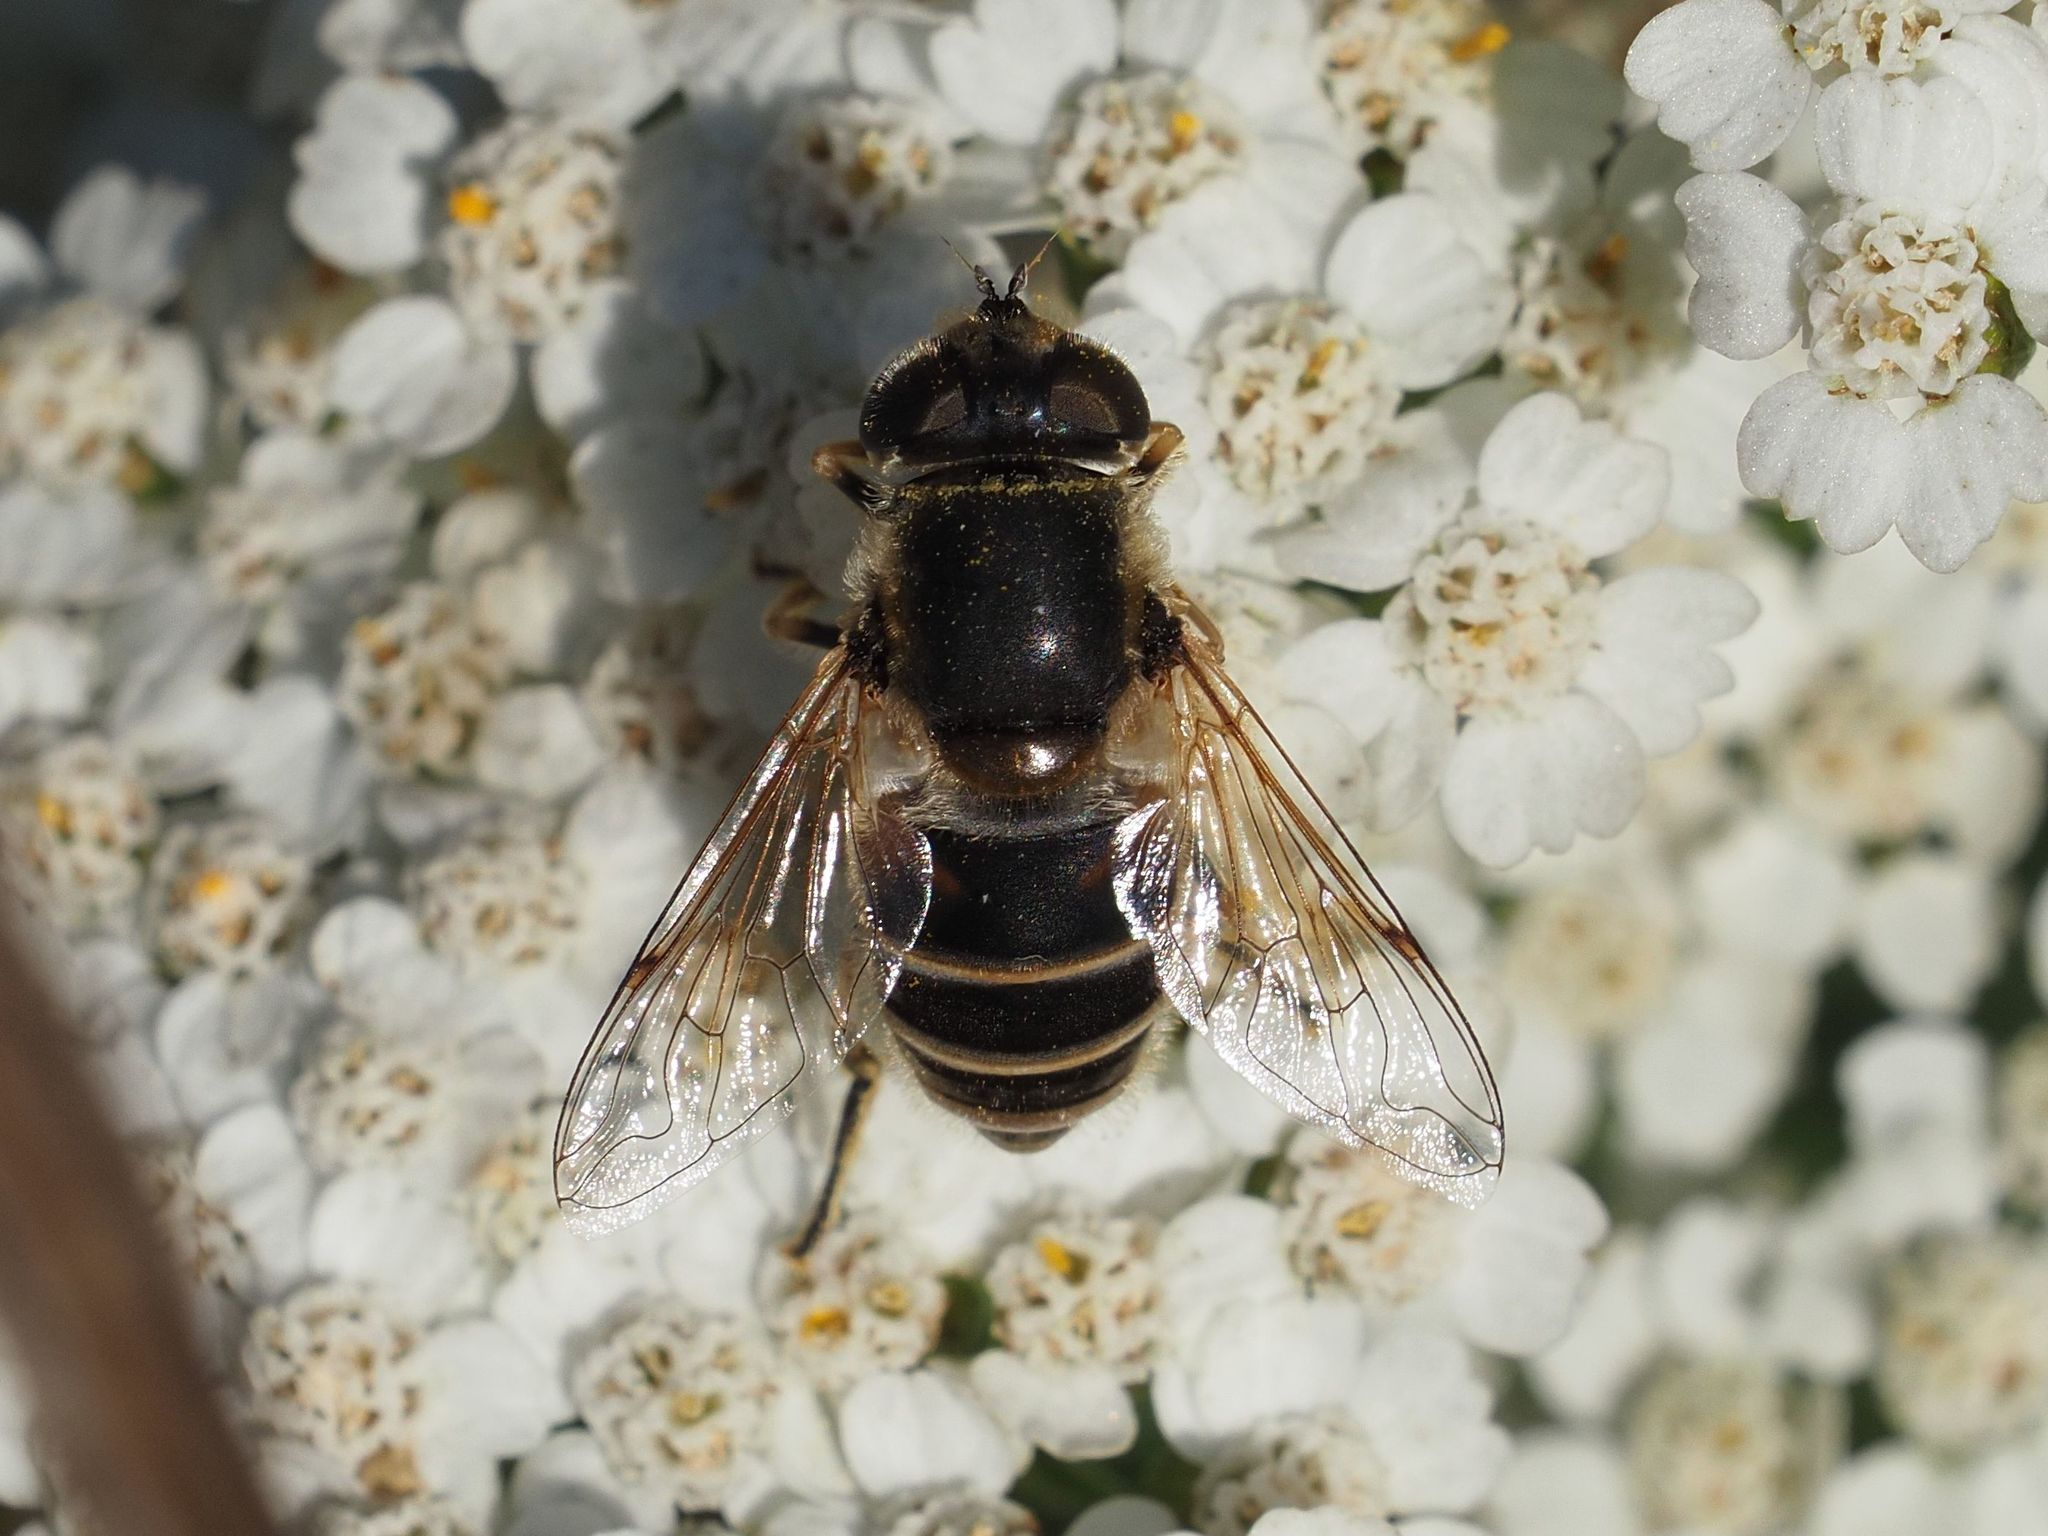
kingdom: Animalia
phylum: Arthropoda
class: Insecta
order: Diptera
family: Syrphidae
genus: Eristalis
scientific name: Eristalis arbustorum
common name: Hover fly
